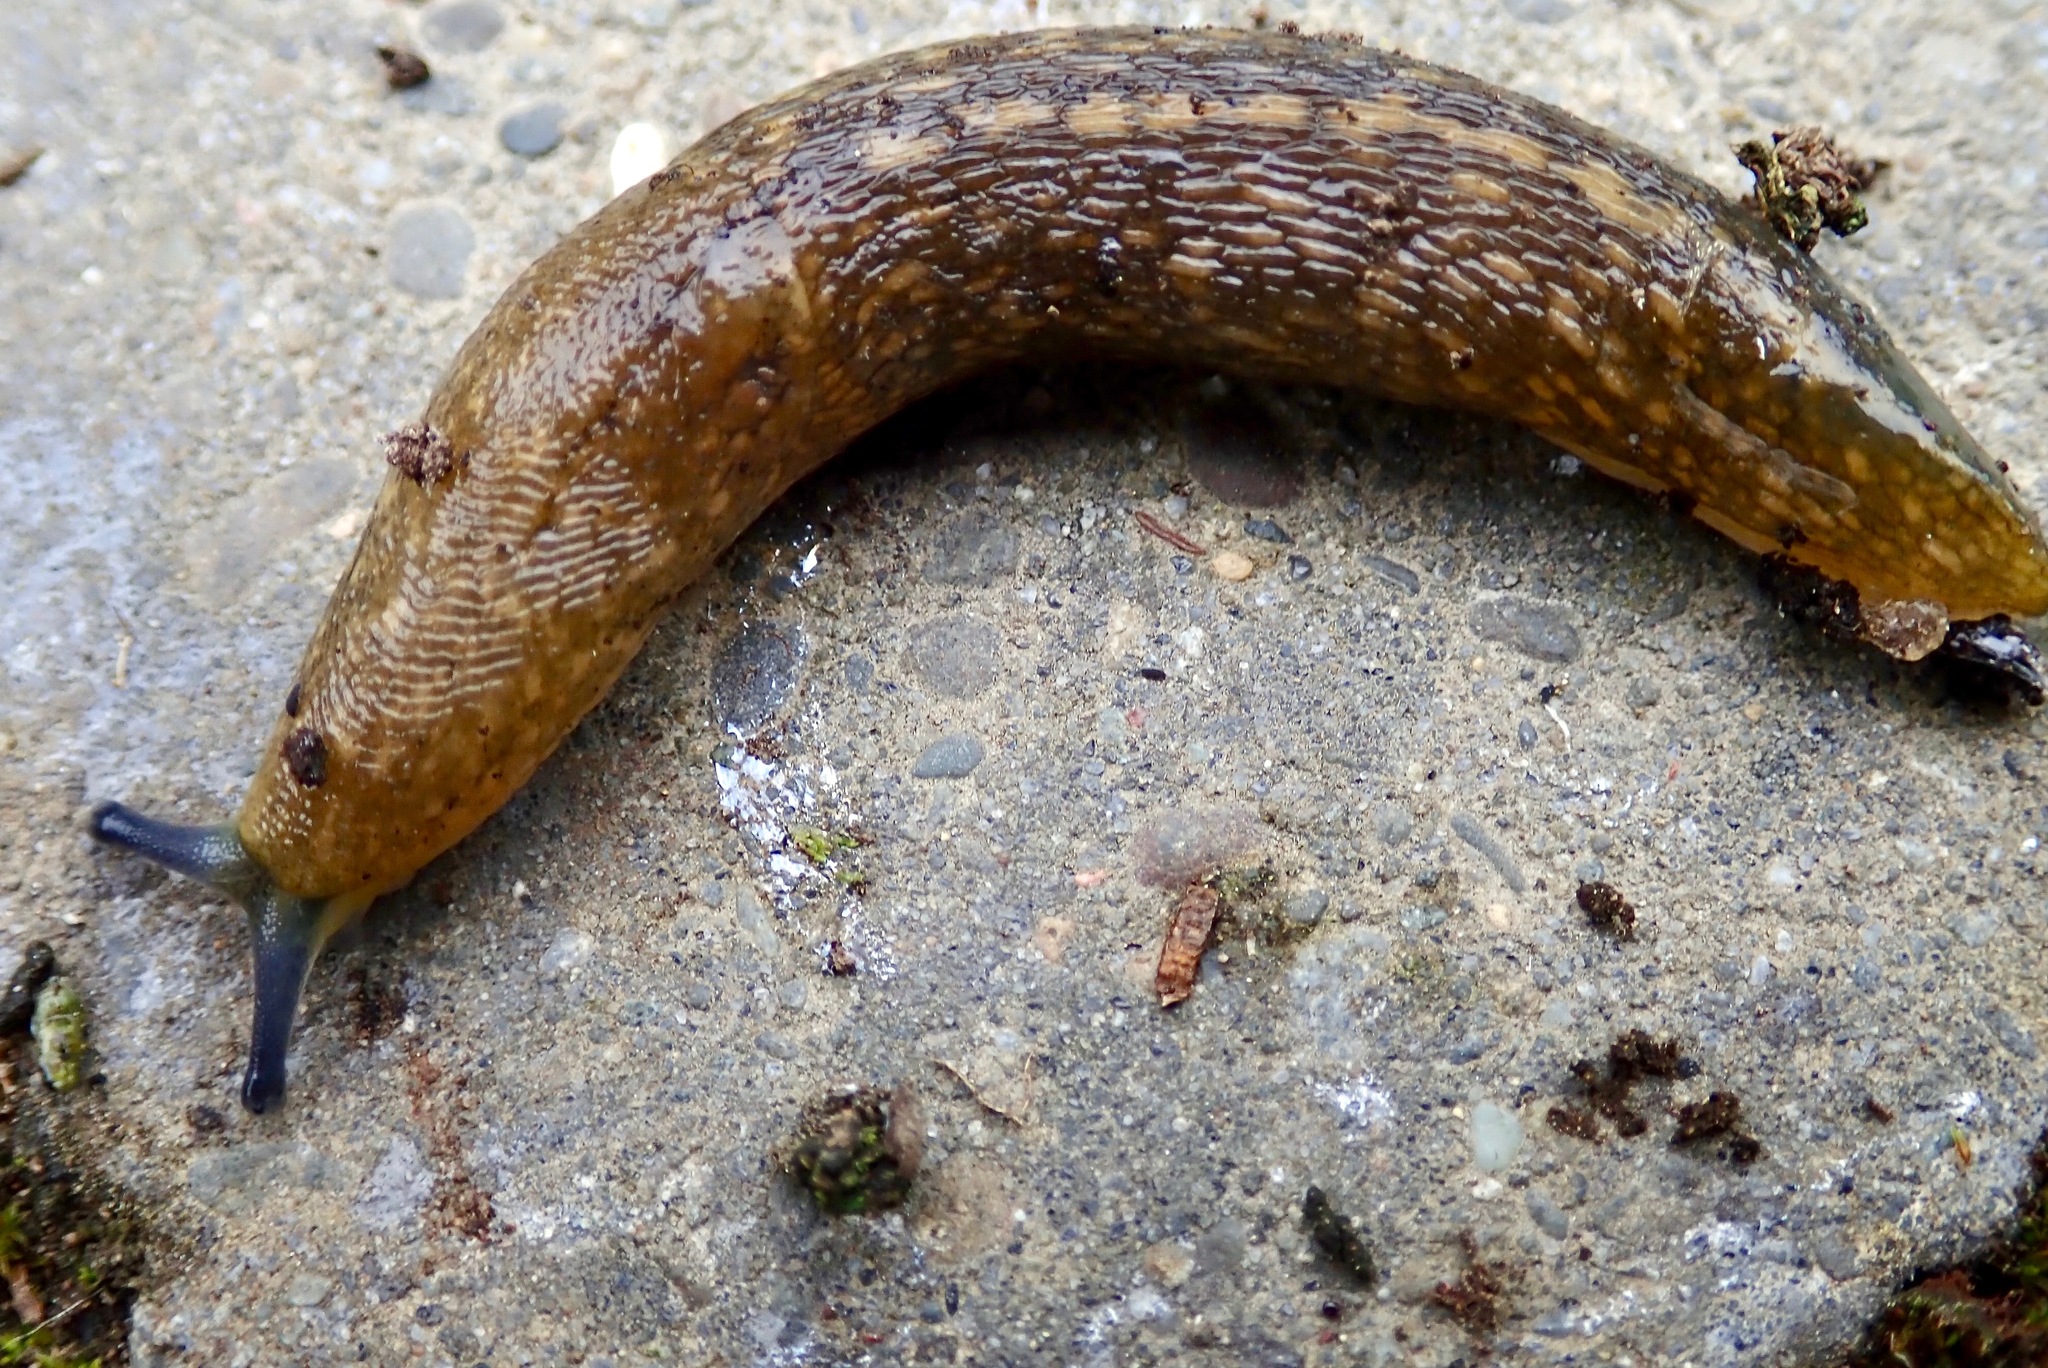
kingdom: Animalia
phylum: Mollusca
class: Gastropoda
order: Stylommatophora
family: Limacidae
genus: Limacus
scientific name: Limacus flavus
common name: Yellow gardenslug
